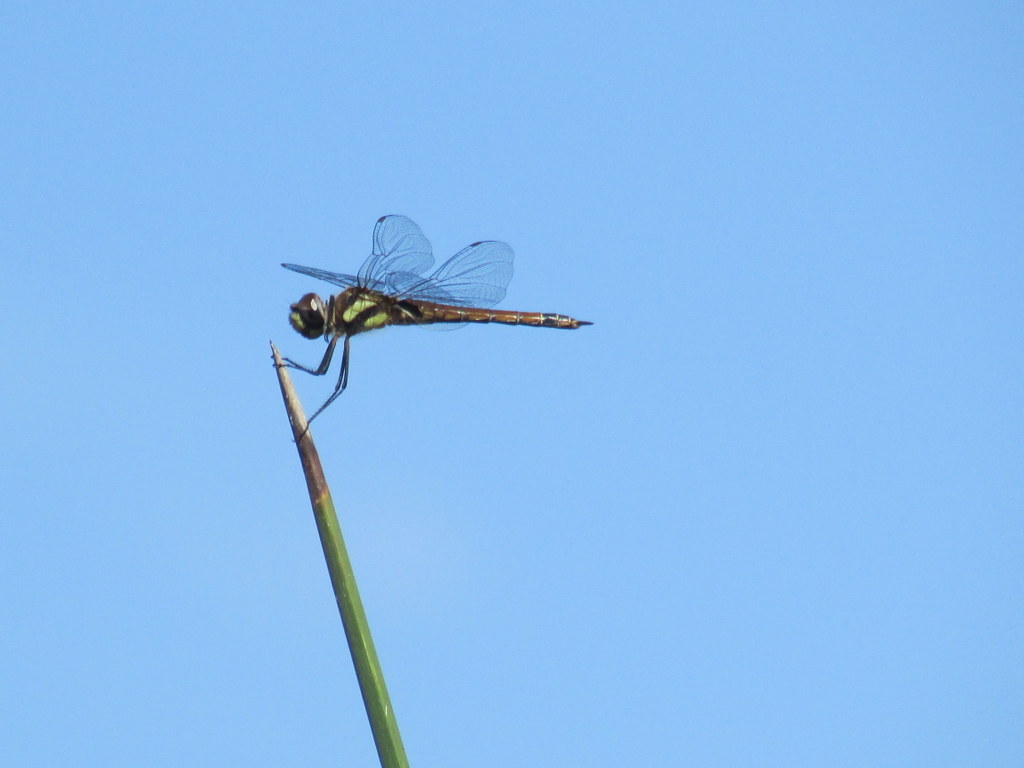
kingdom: Animalia
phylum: Arthropoda
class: Insecta
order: Odonata
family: Libellulidae
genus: Tramea
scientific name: Tramea cophysa
